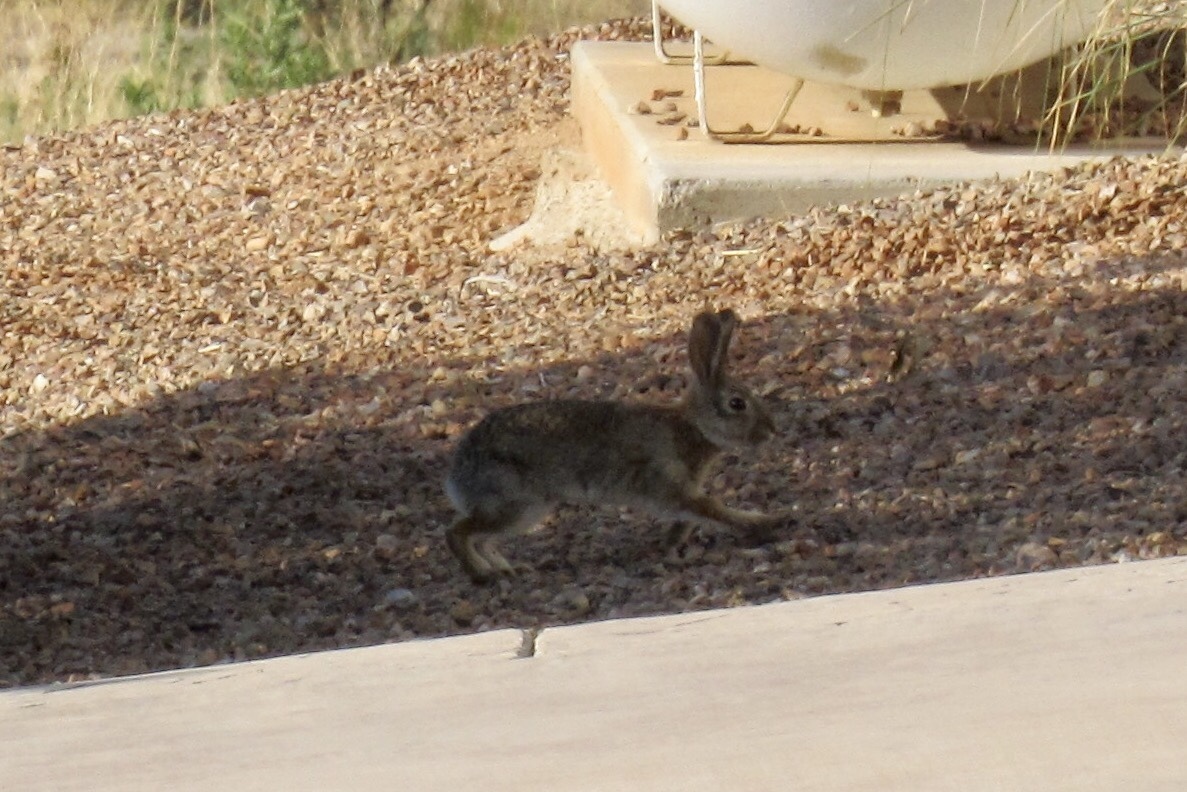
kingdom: Animalia
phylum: Chordata
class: Mammalia
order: Lagomorpha
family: Leporidae
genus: Sylvilagus
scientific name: Sylvilagus audubonii
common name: Desert cottontail
